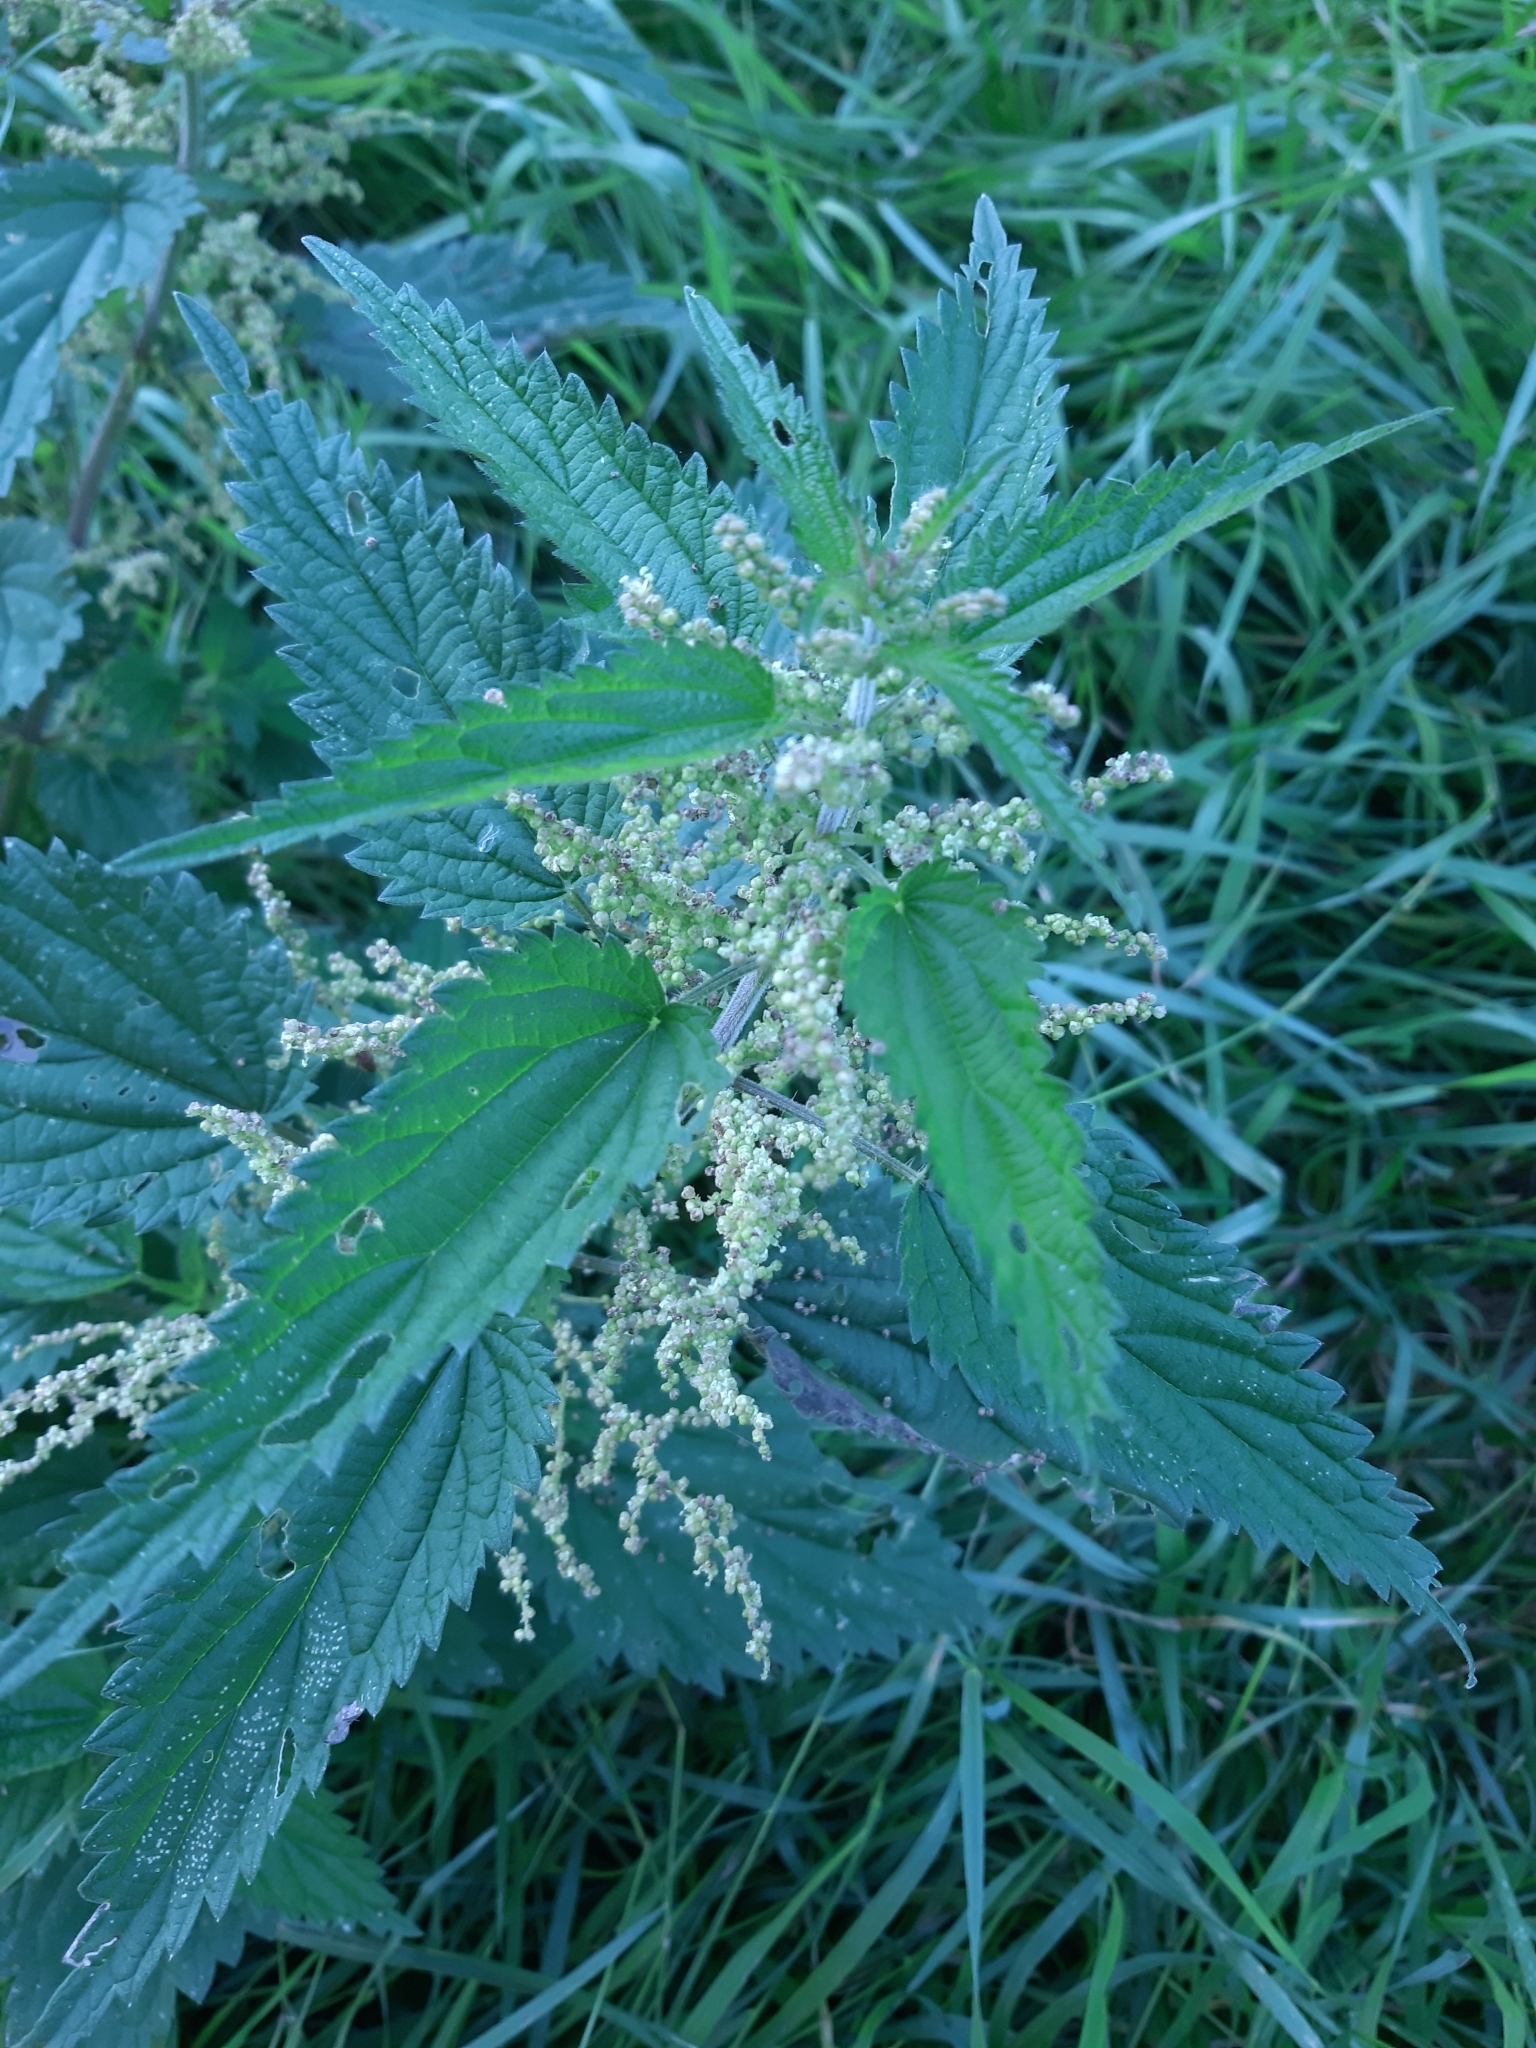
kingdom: Plantae
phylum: Tracheophyta
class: Magnoliopsida
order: Rosales
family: Urticaceae
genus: Urtica
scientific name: Urtica dioica
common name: Common nettle
